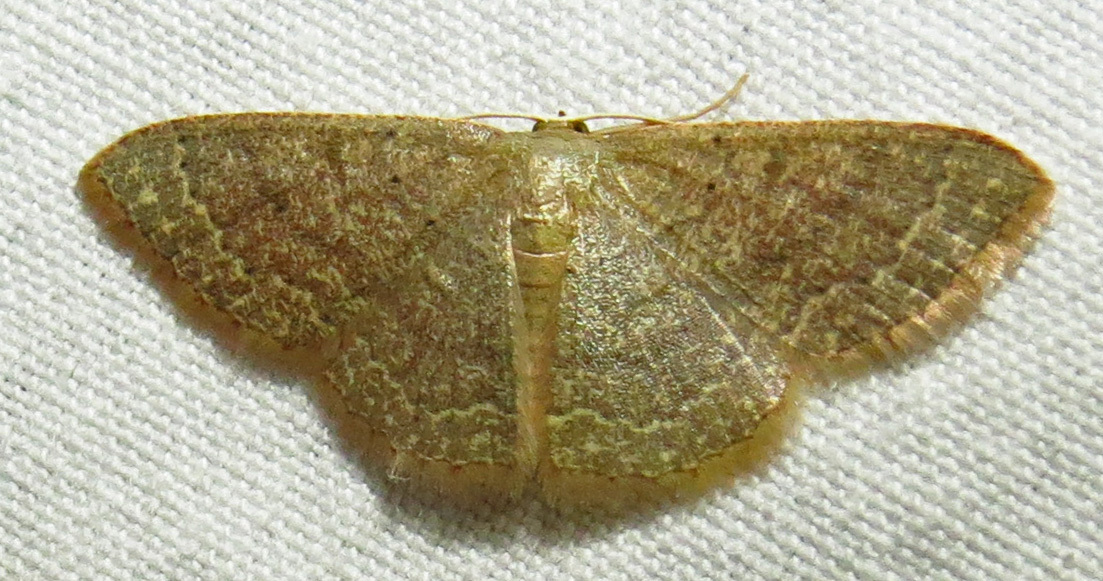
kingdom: Animalia
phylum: Arthropoda
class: Insecta
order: Lepidoptera
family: Geometridae
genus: Pleuroprucha
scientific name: Pleuroprucha insulsaria
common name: Common tan wave
